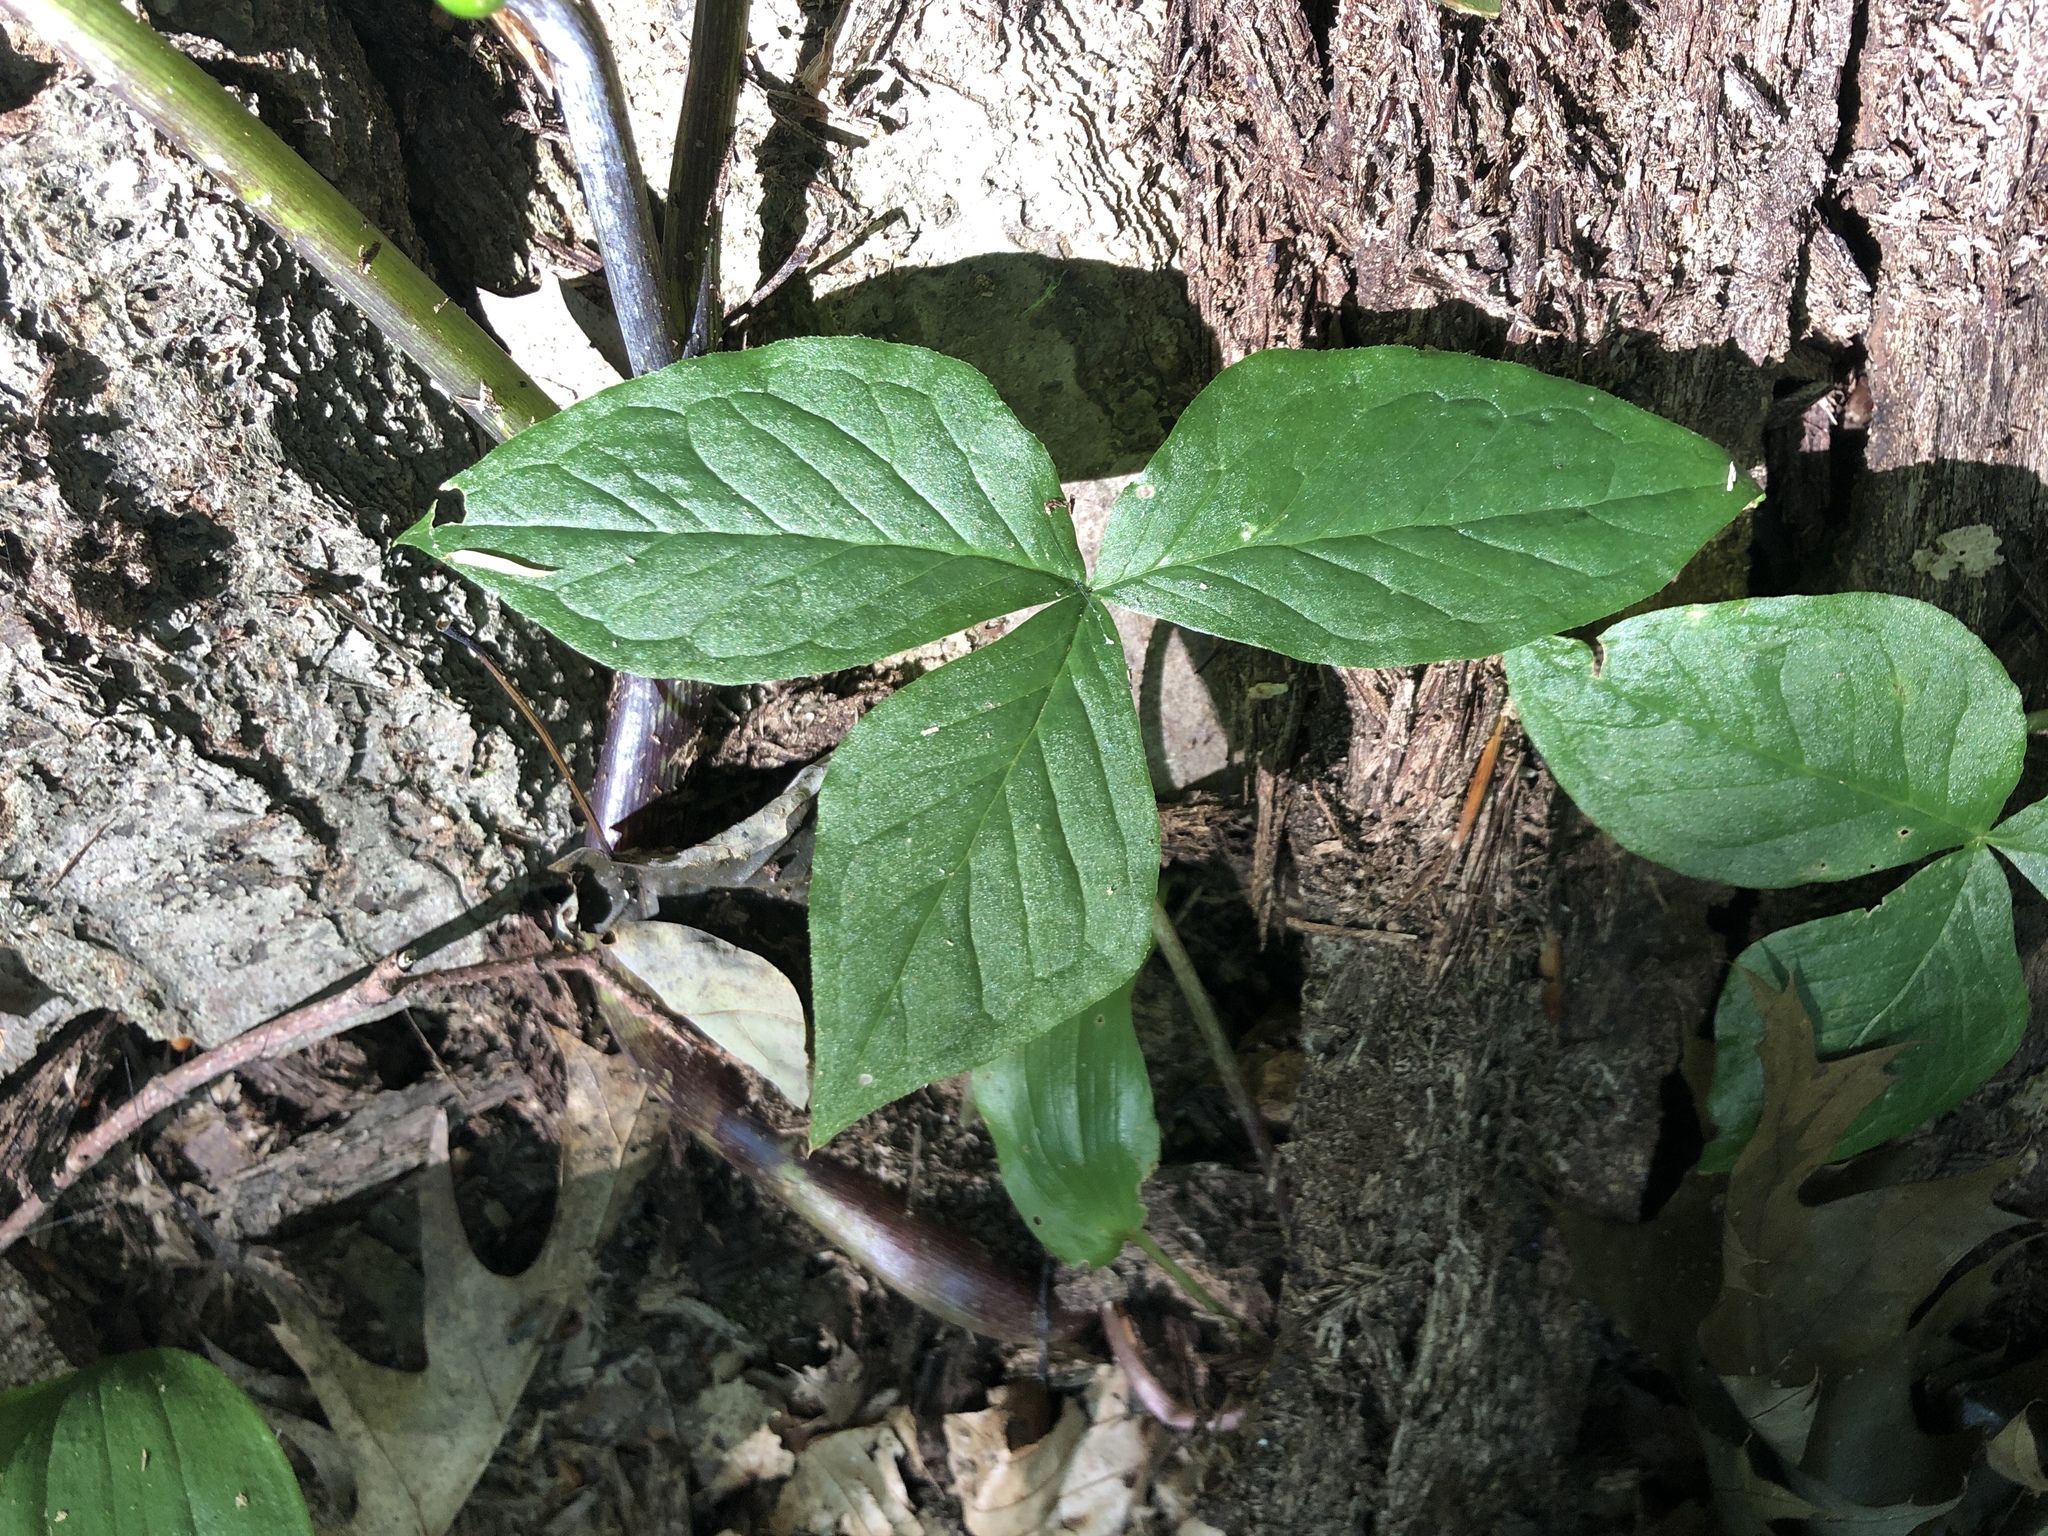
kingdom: Plantae
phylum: Tracheophyta
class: Liliopsida
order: Alismatales
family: Araceae
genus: Arisaema
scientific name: Arisaema triphyllum
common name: Jack-in-the-pulpit
